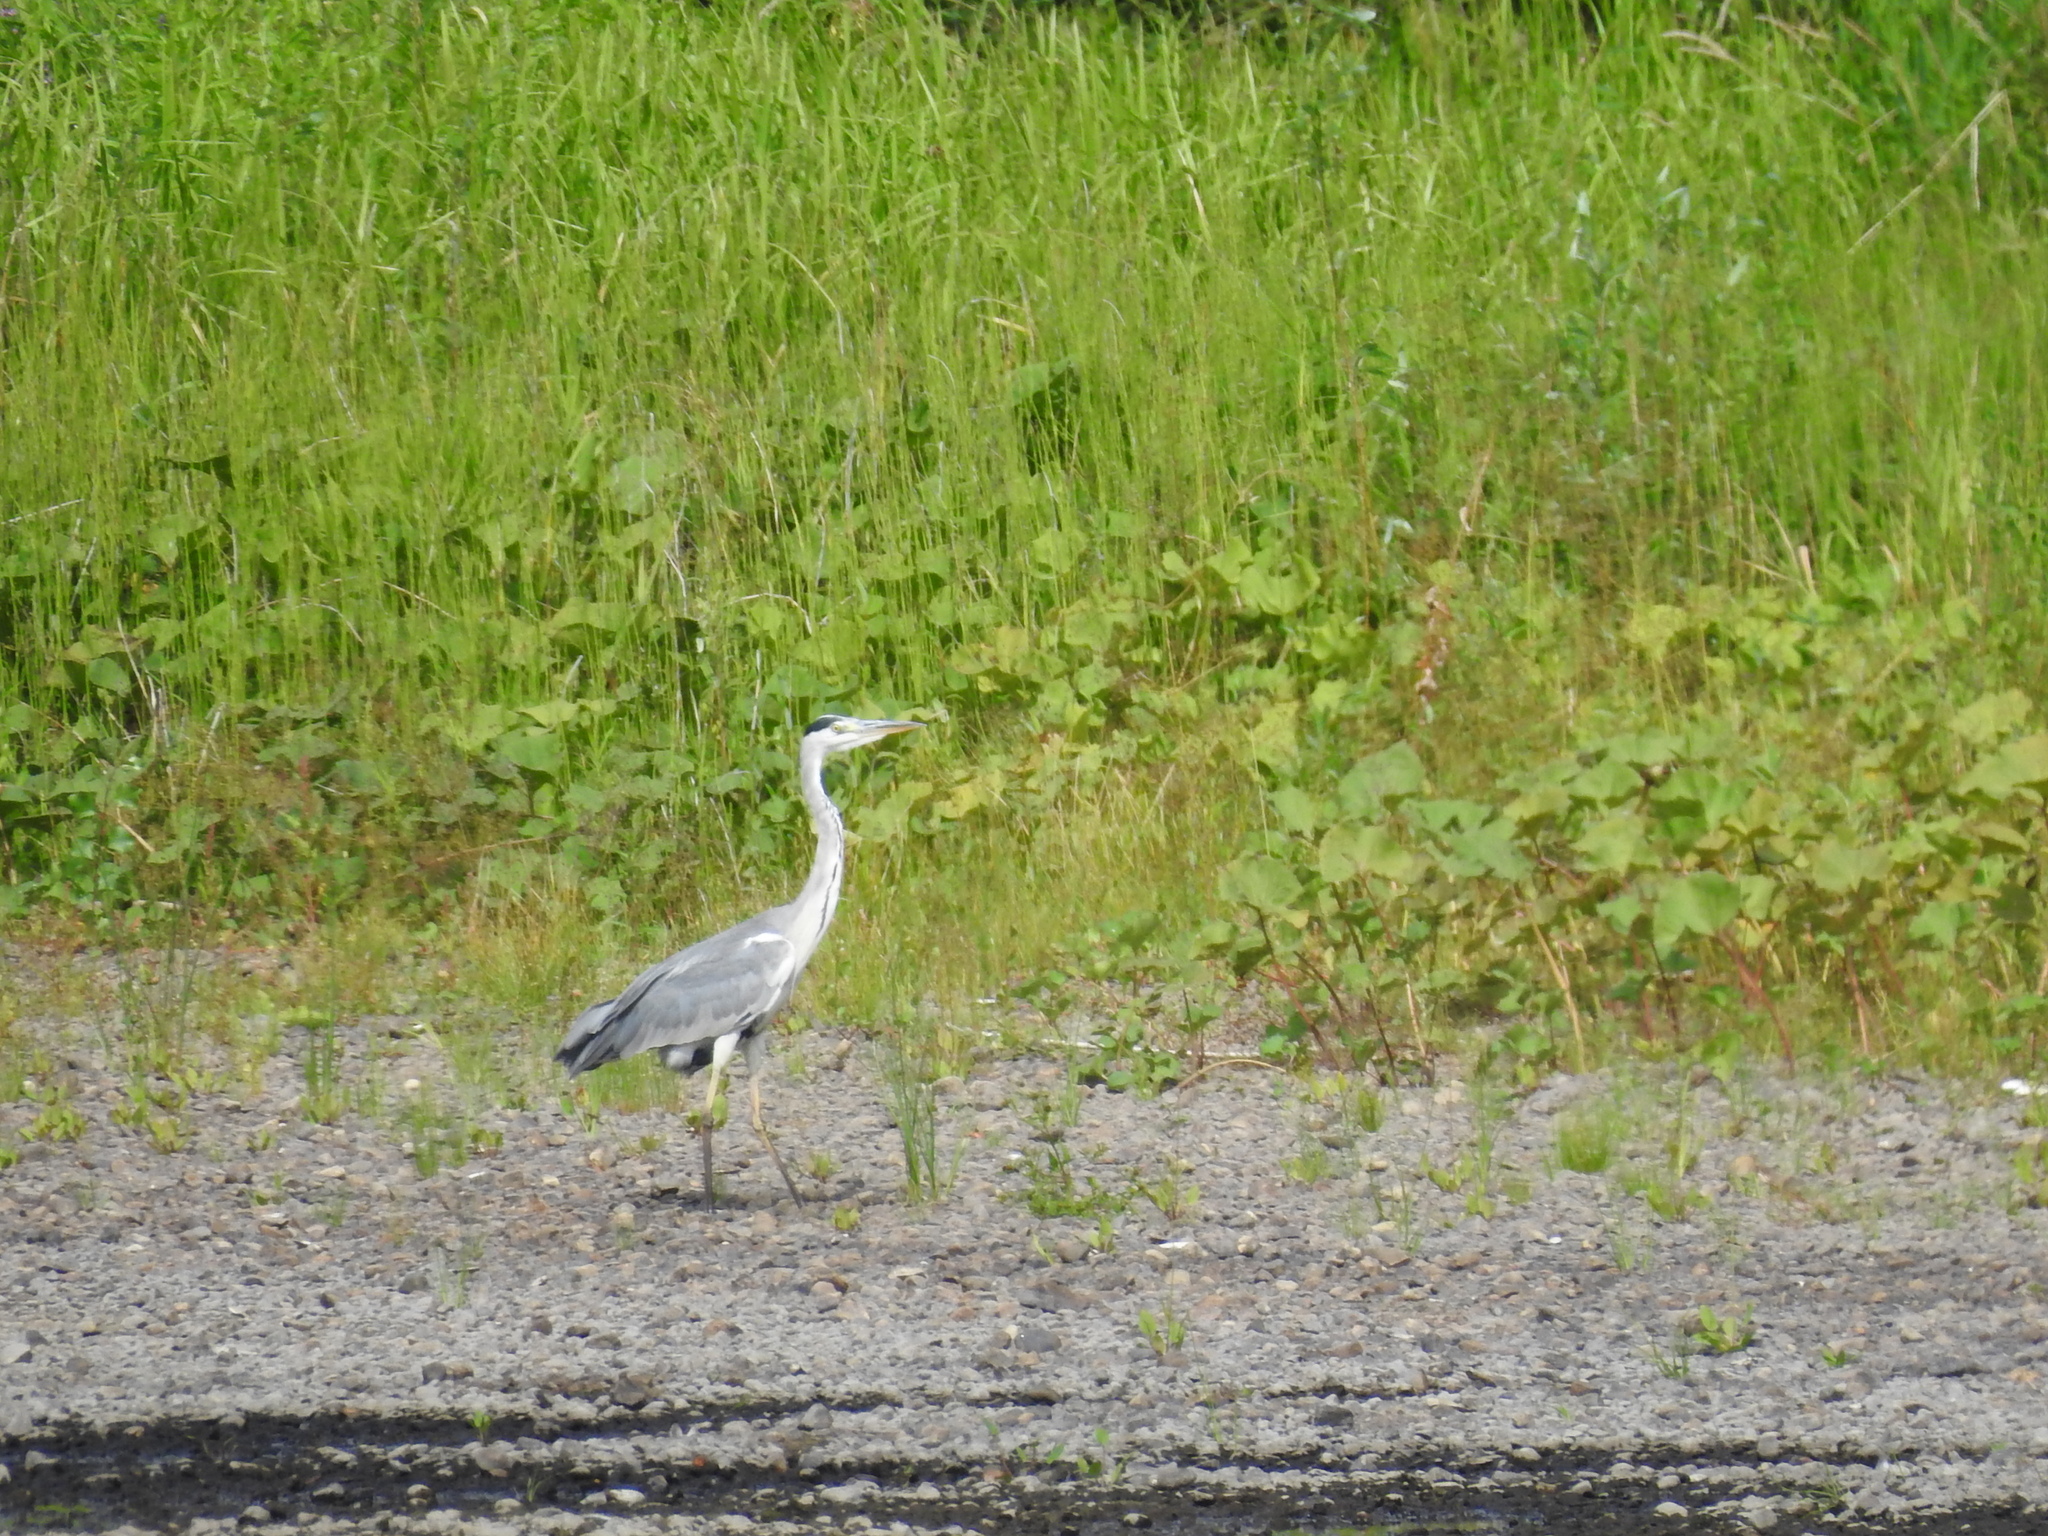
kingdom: Animalia
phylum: Chordata
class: Aves
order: Pelecaniformes
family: Ardeidae
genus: Ardea
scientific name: Ardea cinerea
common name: Grey heron
